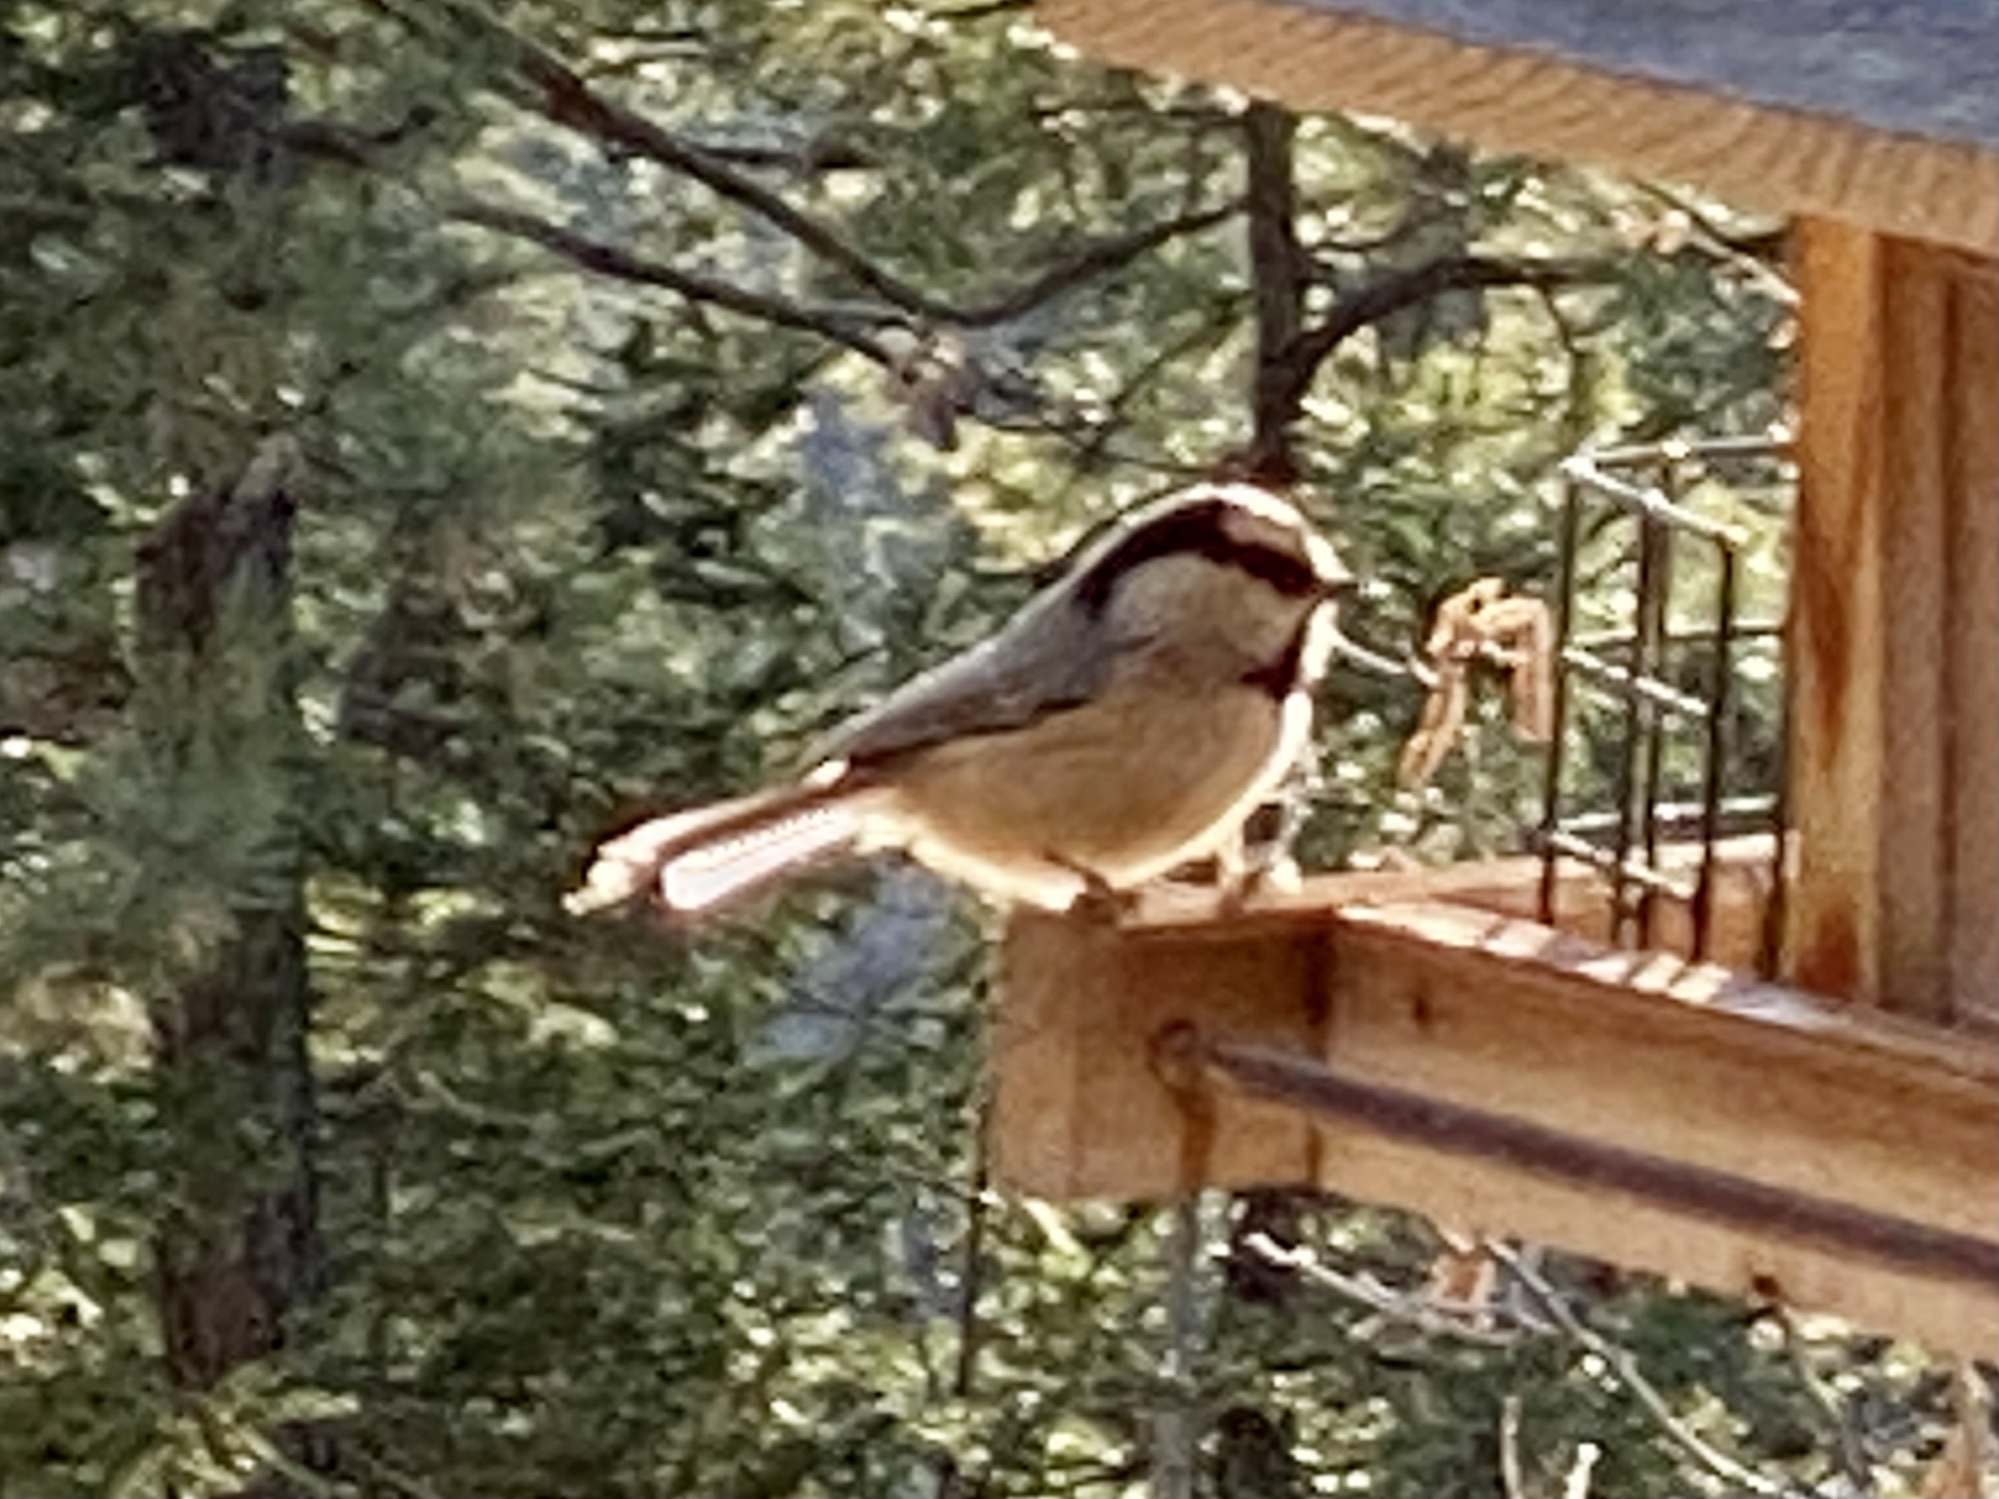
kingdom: Animalia
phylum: Chordata
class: Aves
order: Passeriformes
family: Paridae
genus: Poecile
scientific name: Poecile gambeli
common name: Mountain chickadee
